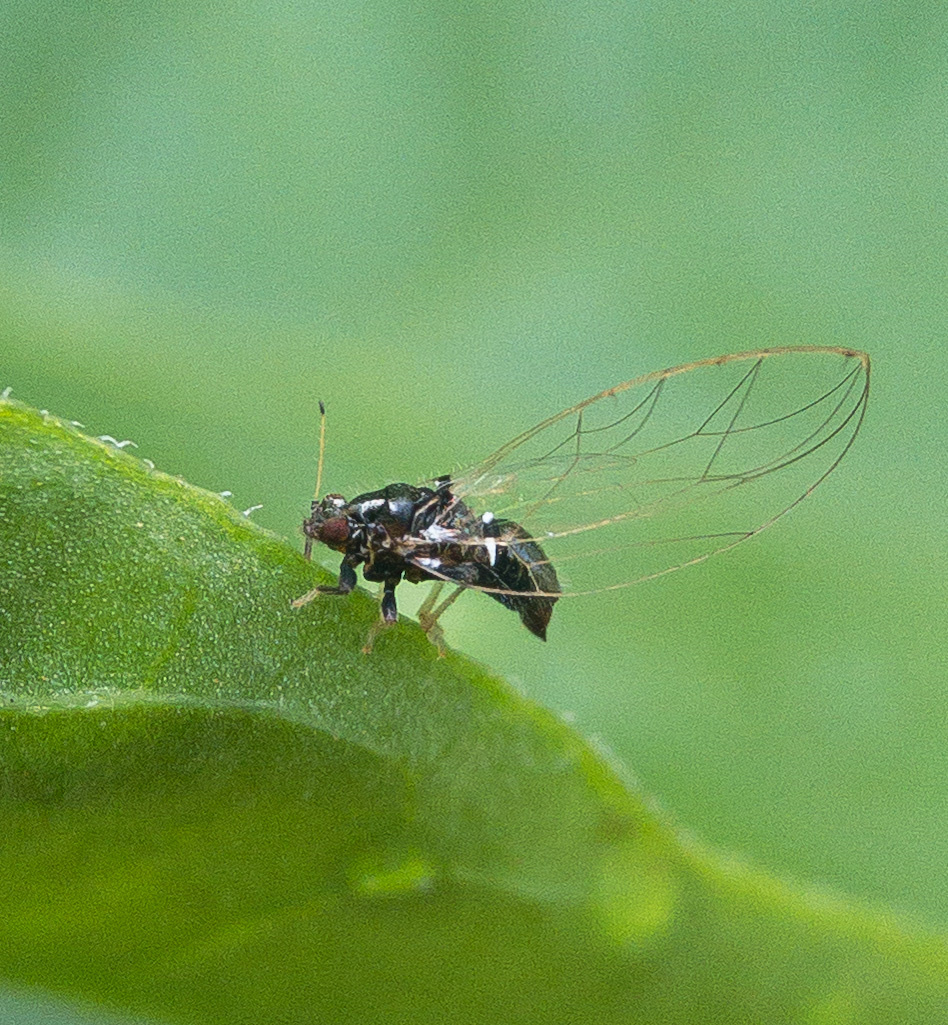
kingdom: Animalia
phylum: Arthropoda
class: Insecta
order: Hemiptera
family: Triozidae
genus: Baeoalitriozus
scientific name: Baeoalitriozus diospyri
